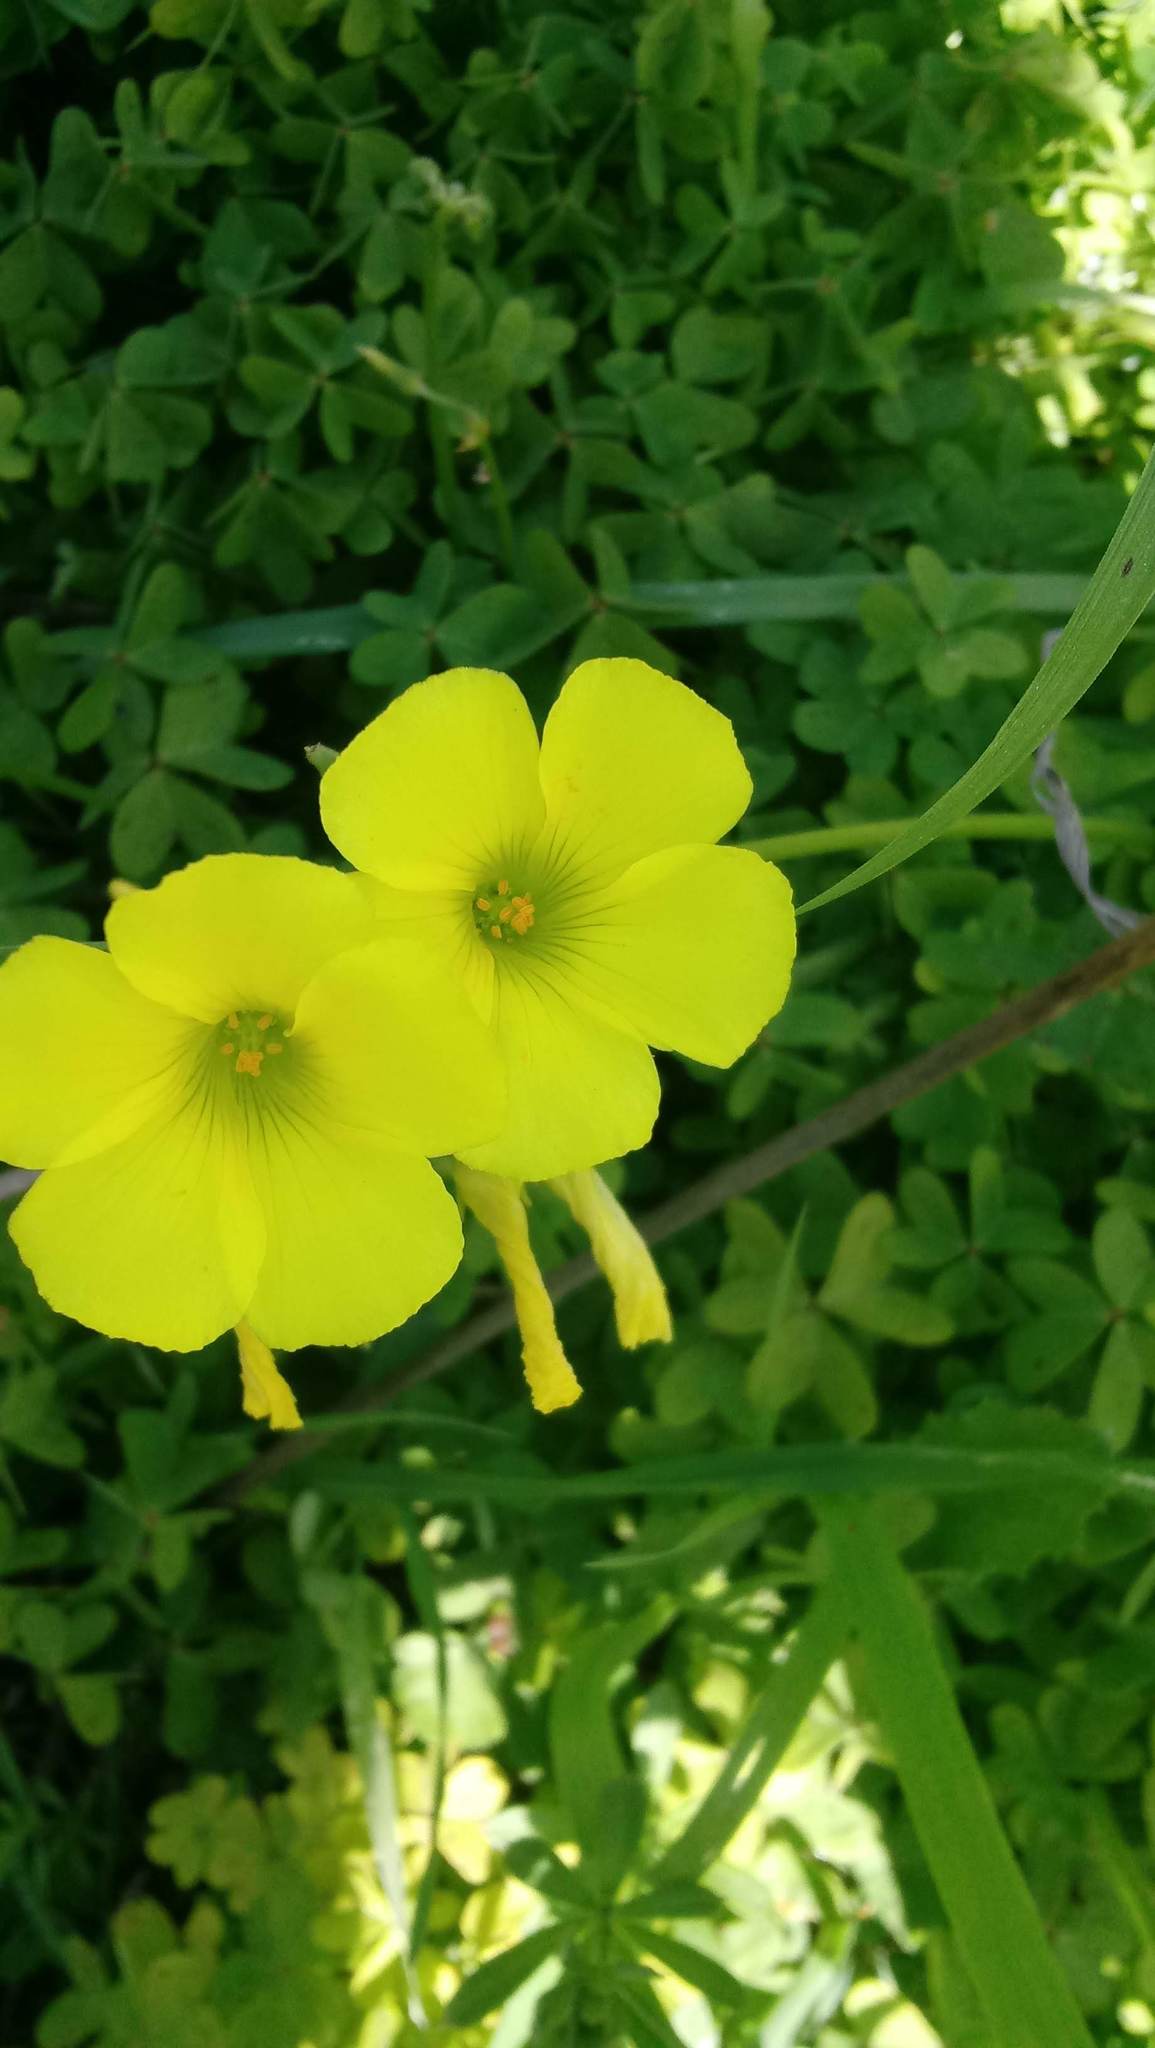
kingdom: Plantae
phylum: Tracheophyta
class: Magnoliopsida
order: Oxalidales
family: Oxalidaceae
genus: Oxalis
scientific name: Oxalis pes-caprae
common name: Bermuda-buttercup
